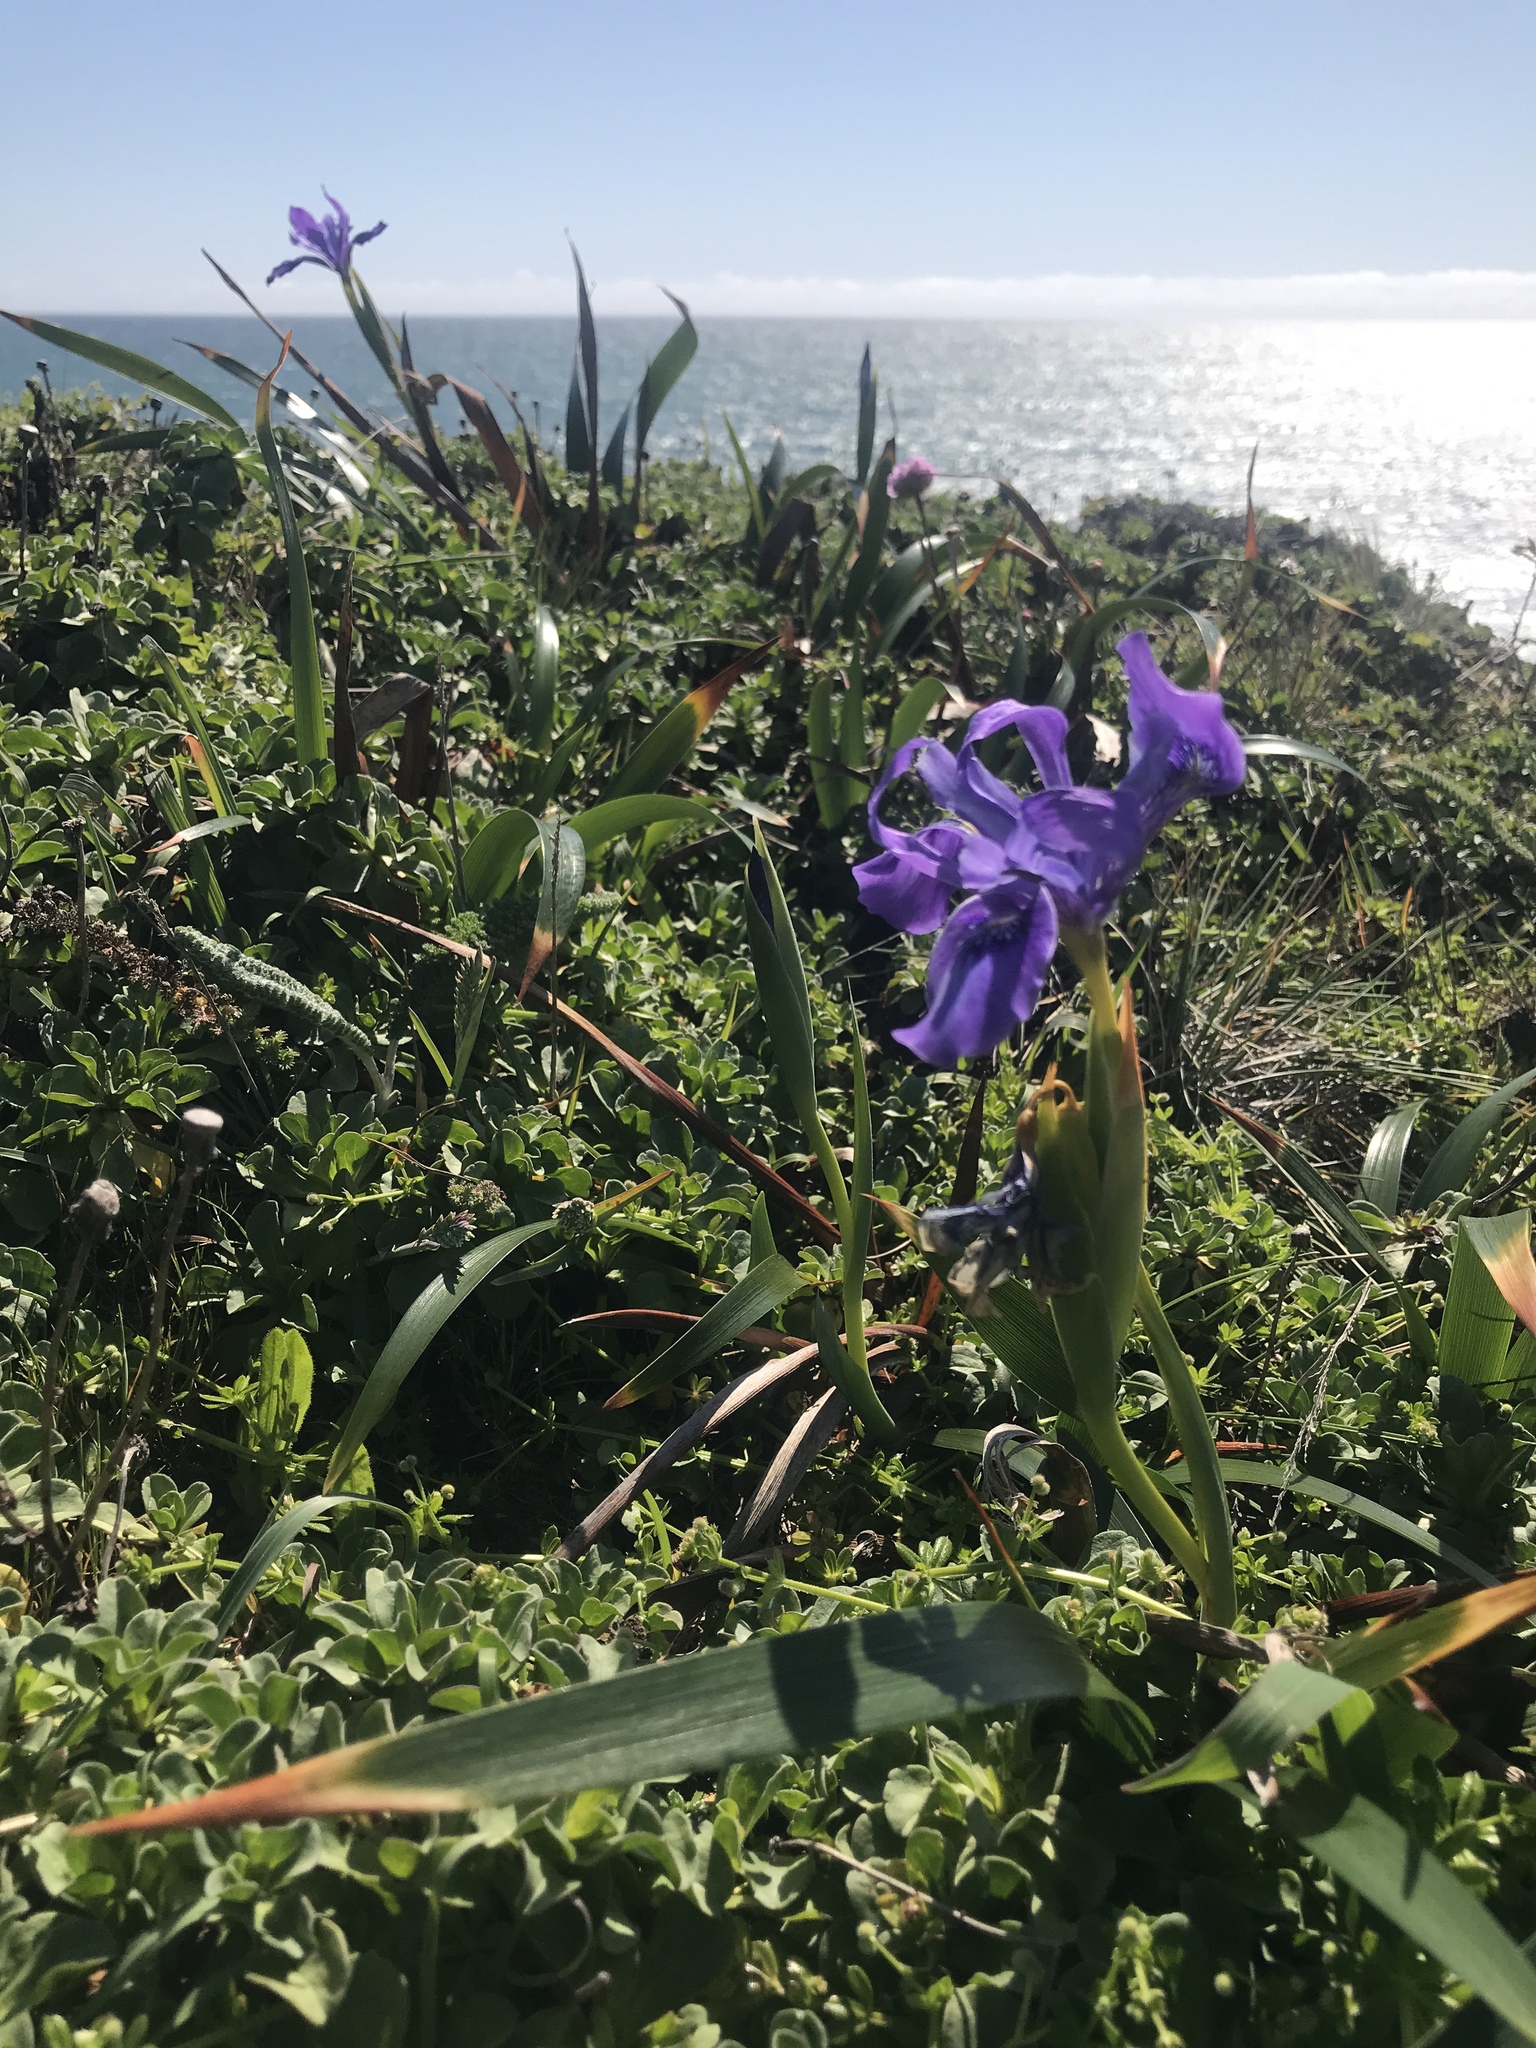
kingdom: Plantae
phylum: Tracheophyta
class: Liliopsida
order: Asparagales
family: Iridaceae
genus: Iris
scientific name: Iris douglasiana
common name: Marin iris
